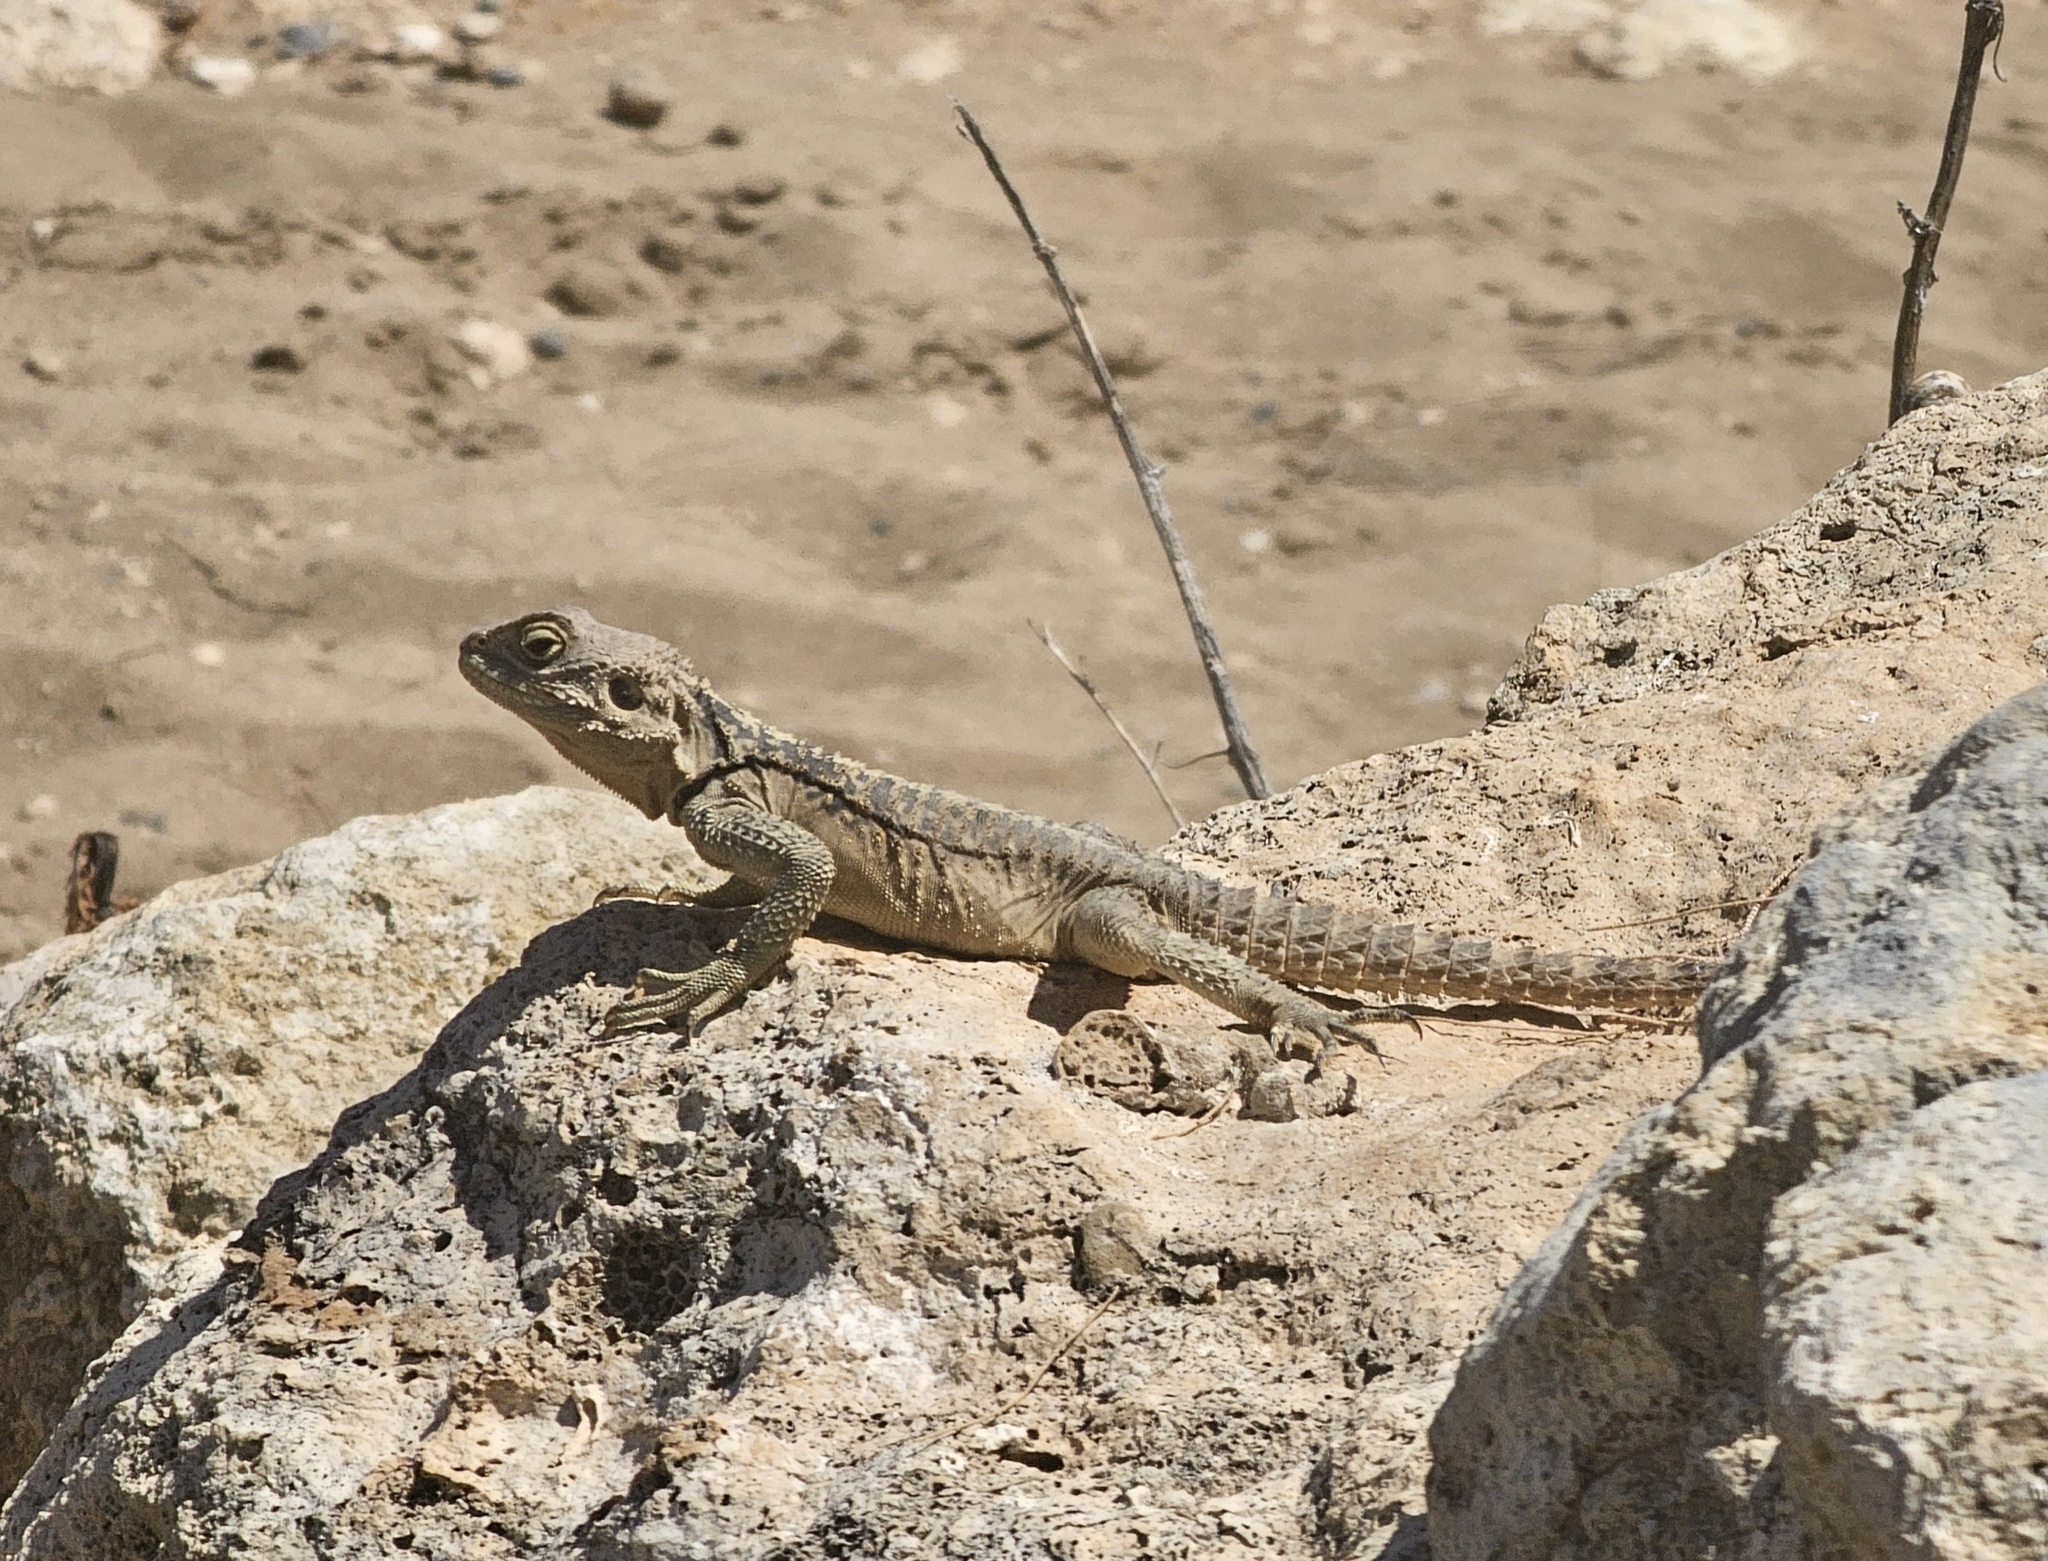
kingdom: Animalia
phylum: Chordata
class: Squamata
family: Agamidae
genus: Laudakia
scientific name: Laudakia
